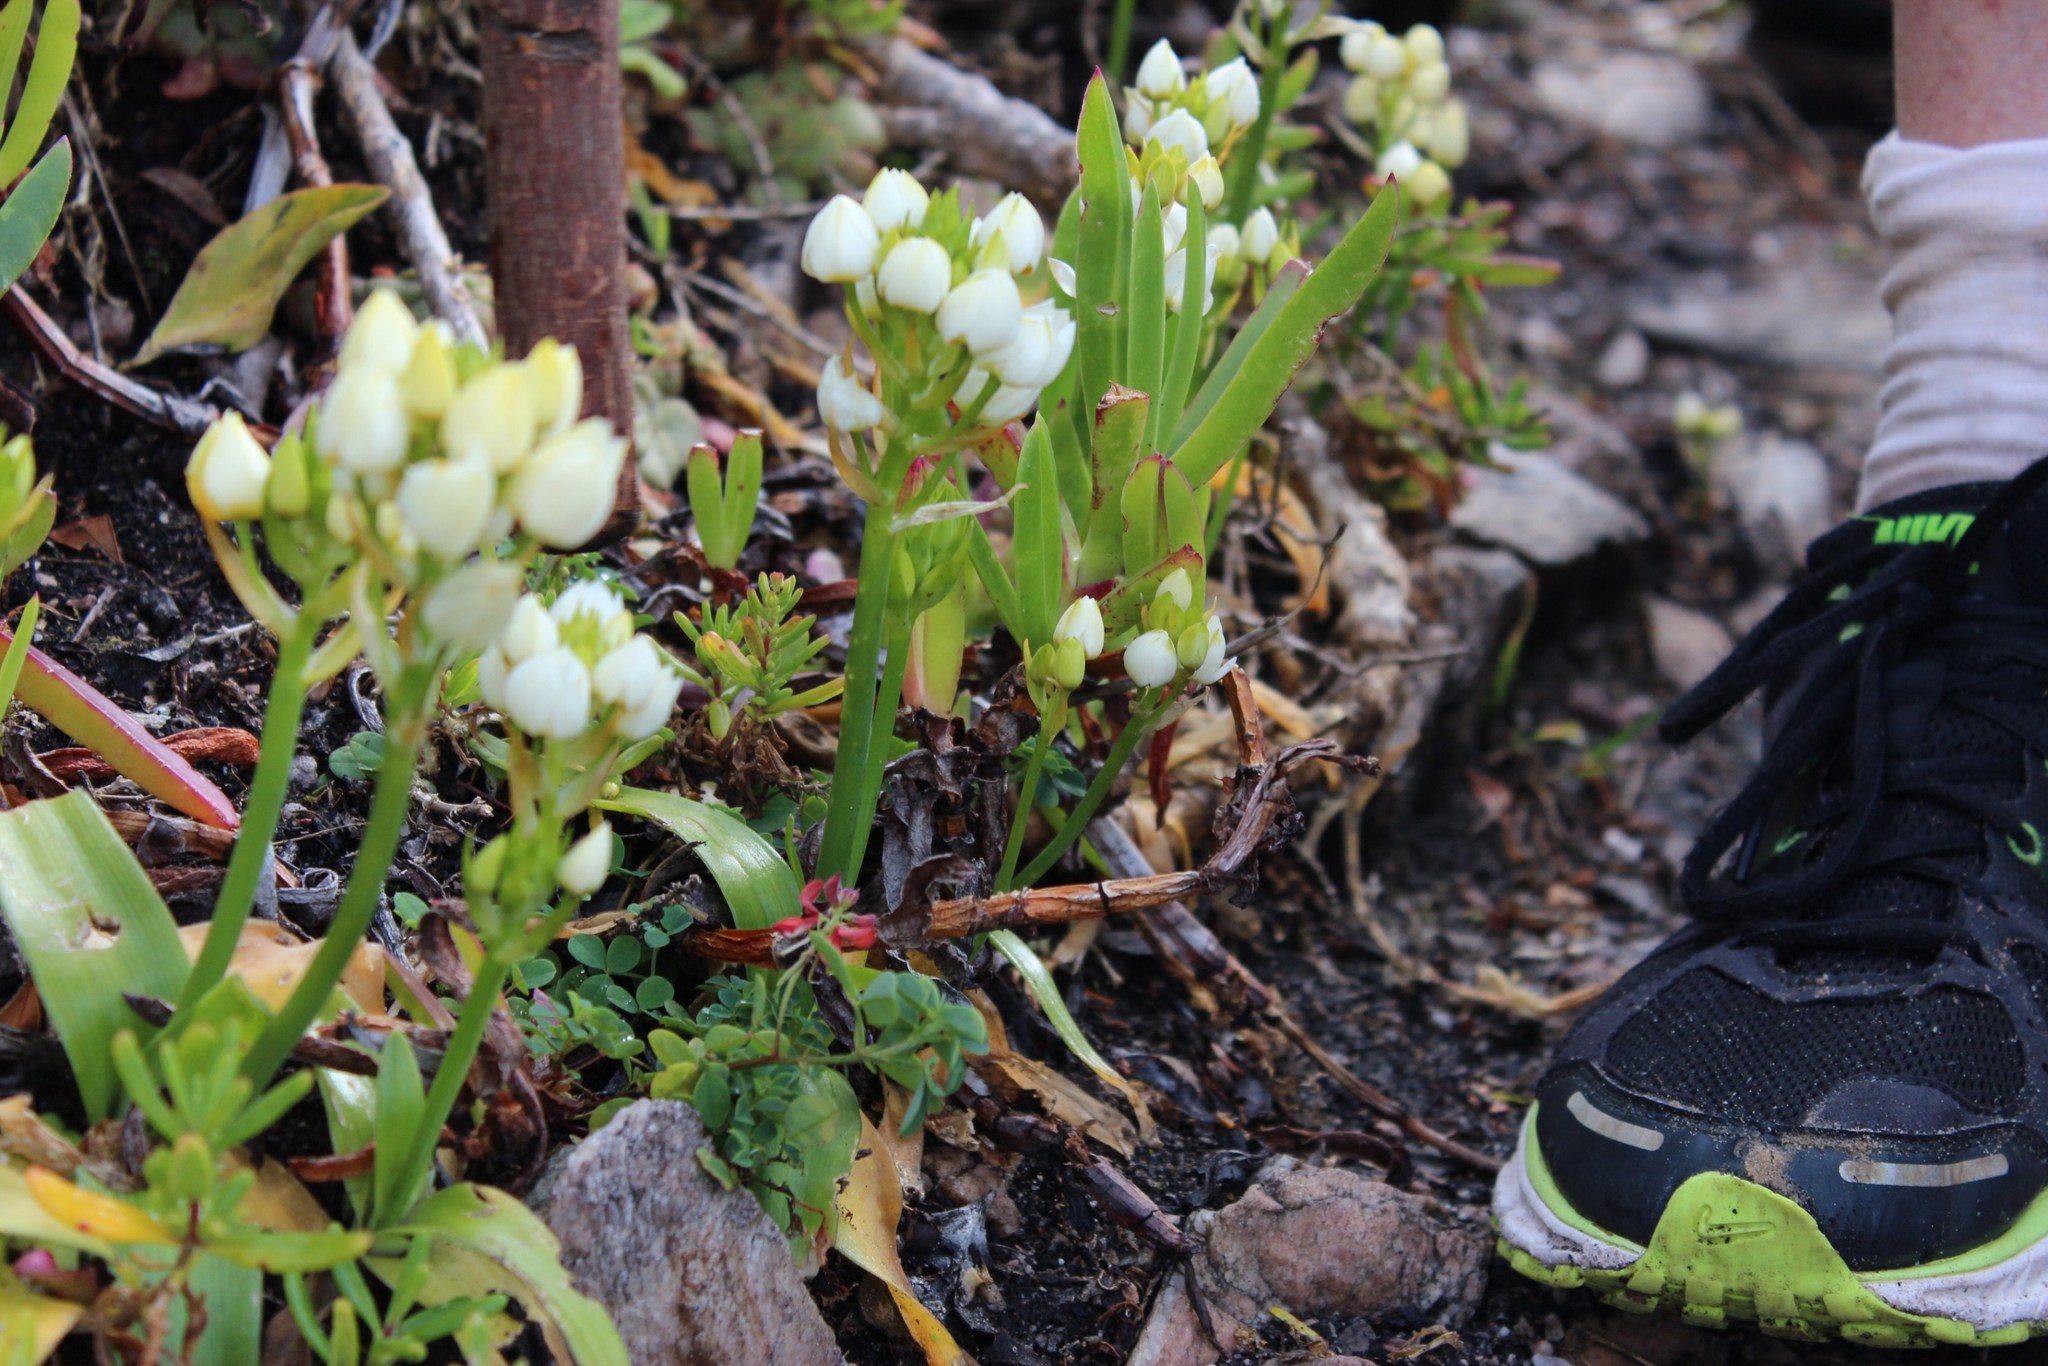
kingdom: Plantae
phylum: Tracheophyta
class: Liliopsida
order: Asparagales
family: Asparagaceae
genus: Ornithogalum
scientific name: Ornithogalum dubium
